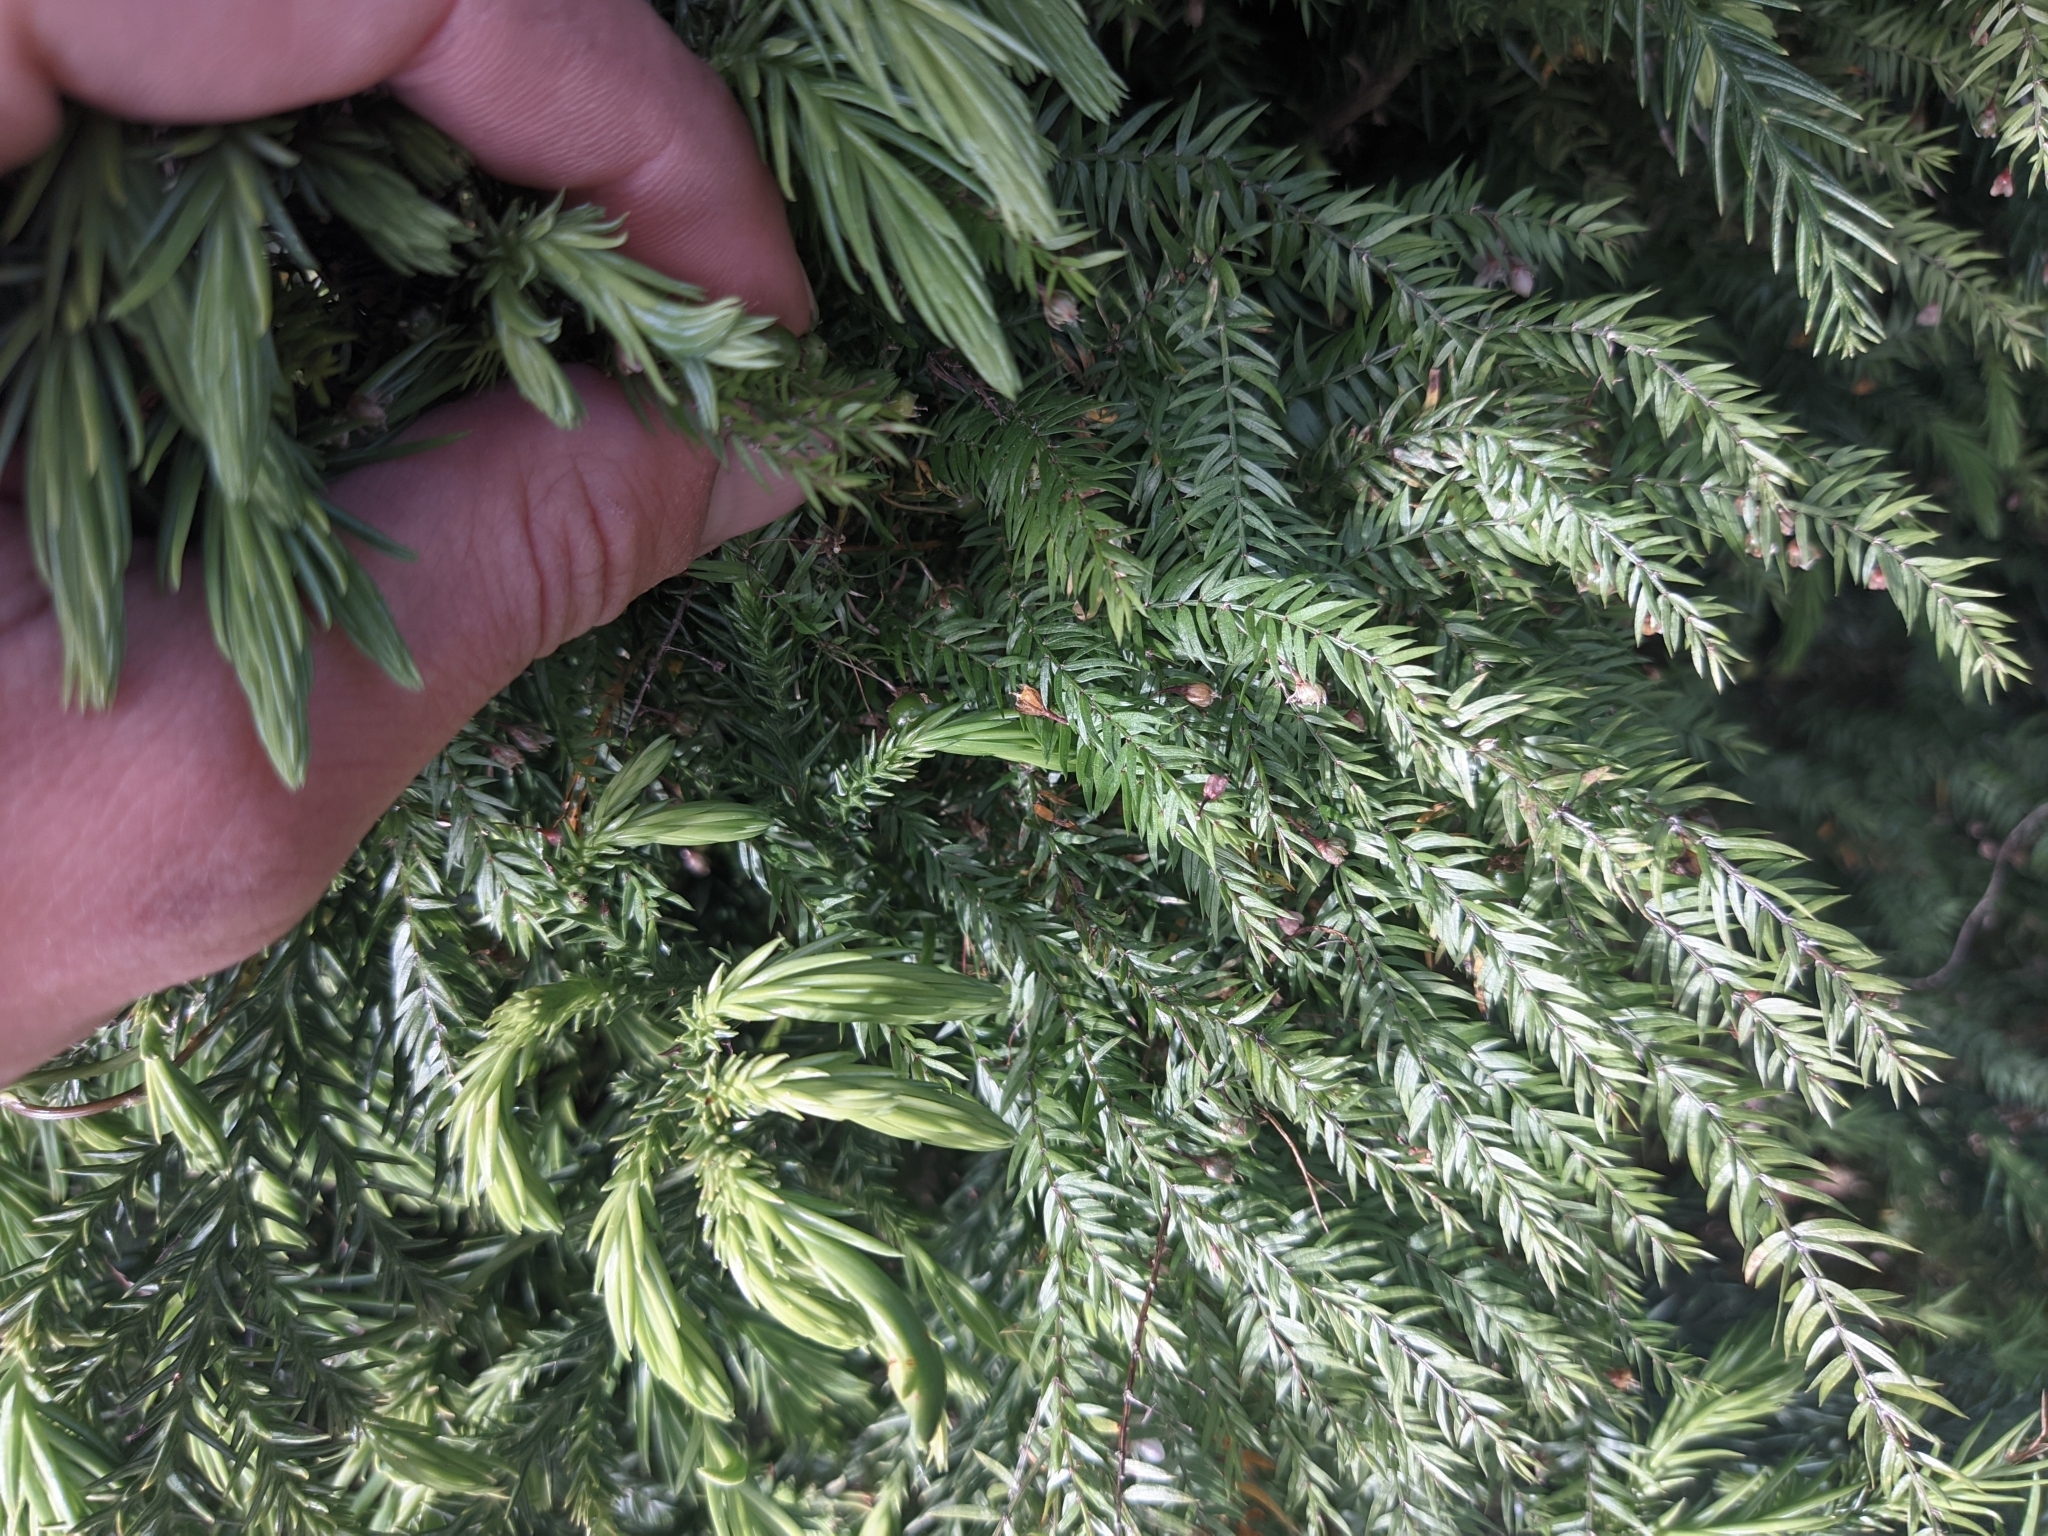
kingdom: Plantae
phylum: Tracheophyta
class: Liliopsida
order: Asparagales
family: Asparagaceae
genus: Asparagus
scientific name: Asparagus scandens
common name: Asparagus-fern
